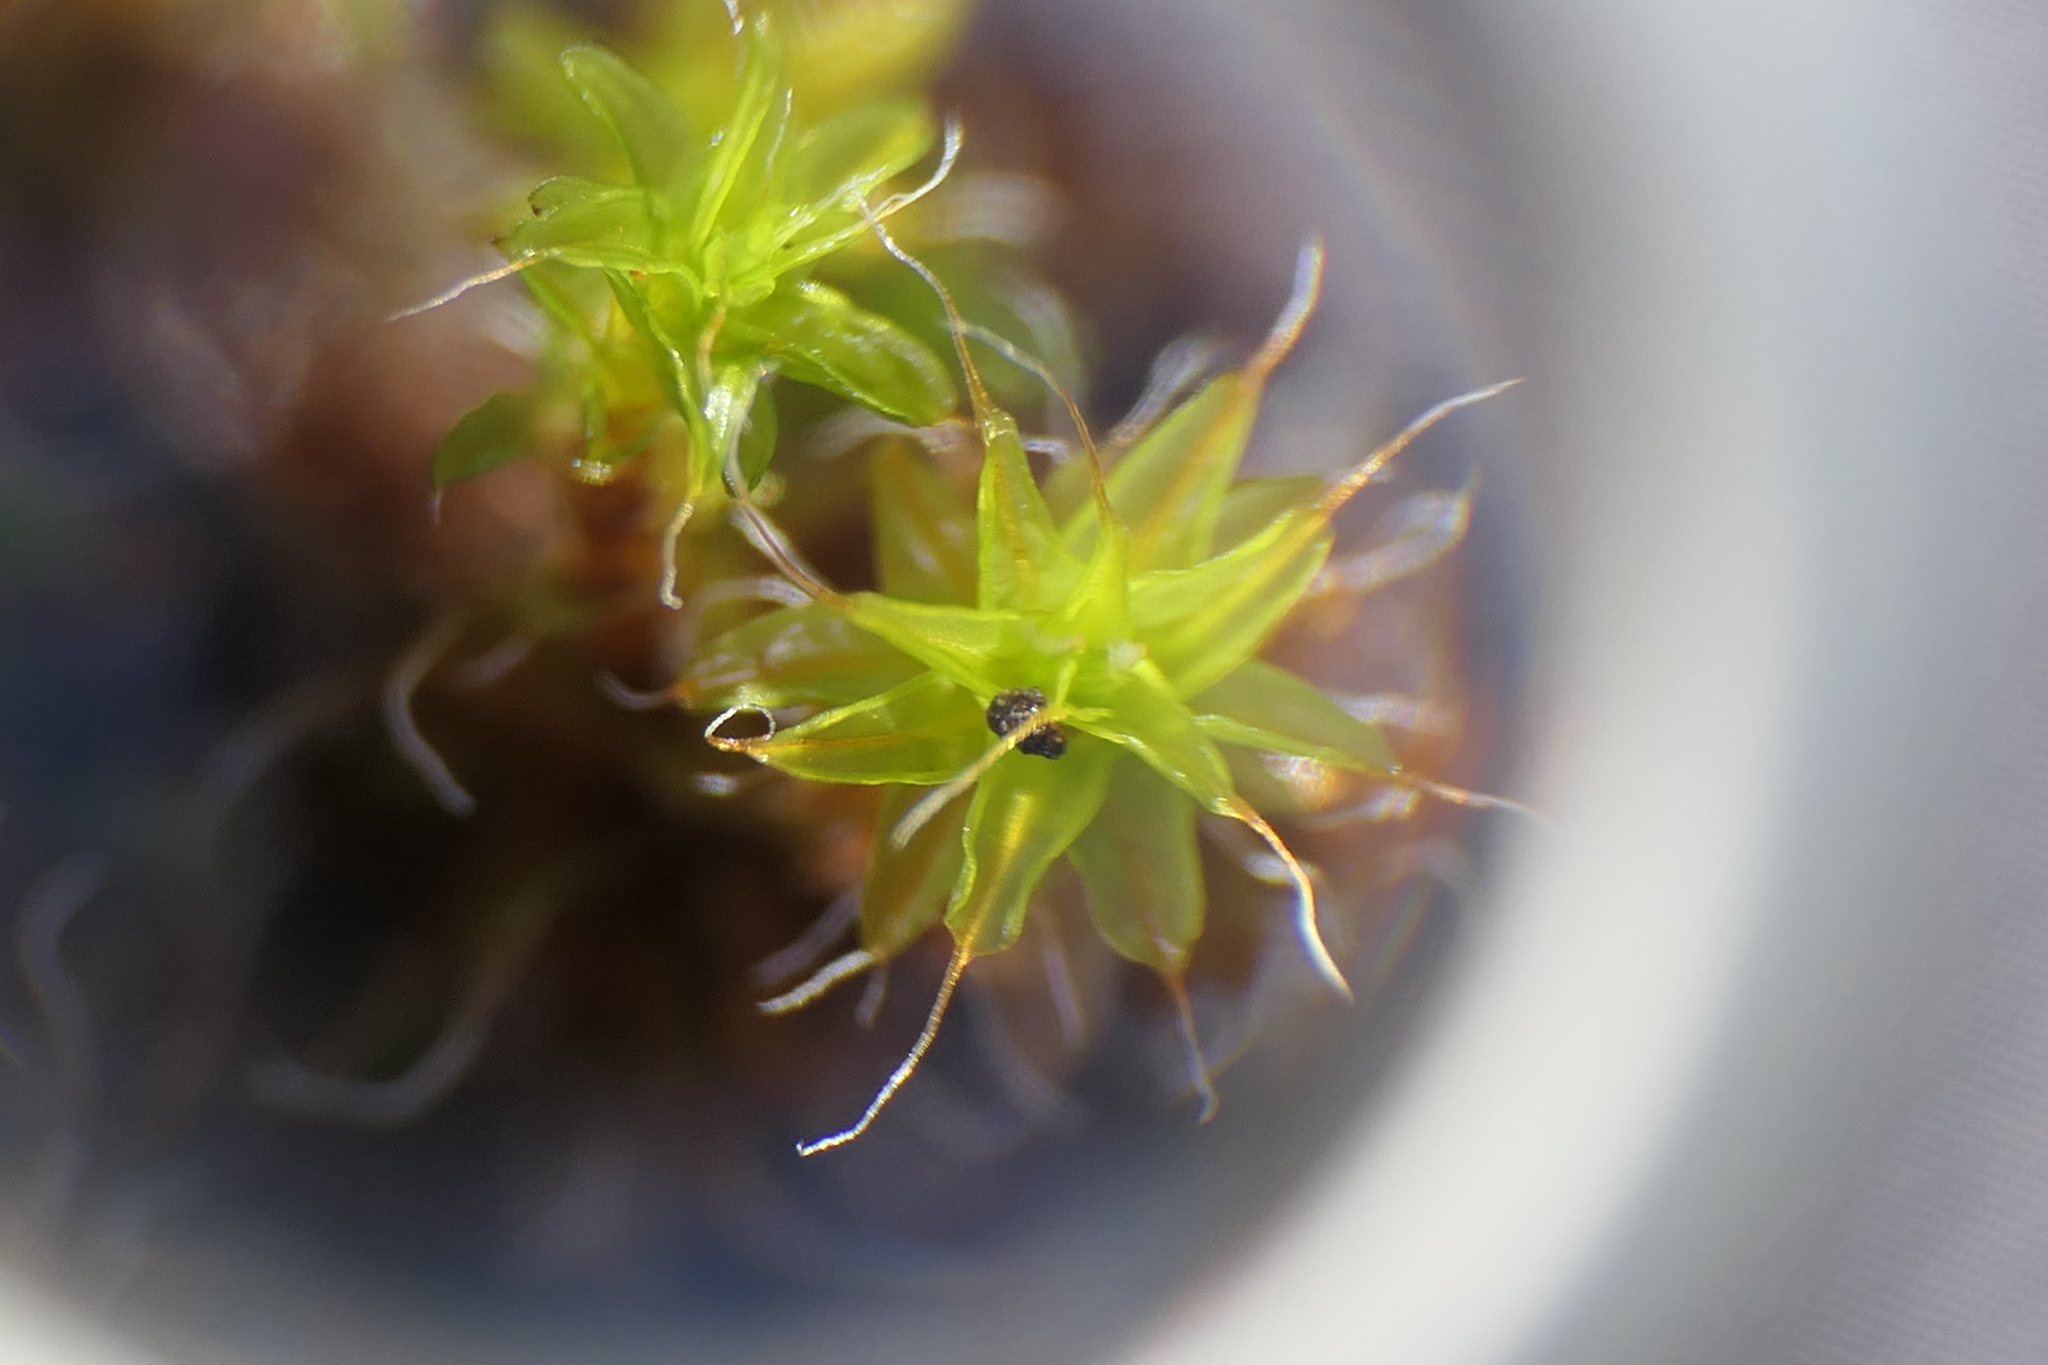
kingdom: Plantae
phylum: Bryophyta
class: Bryopsida
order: Pottiales
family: Pottiaceae
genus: Syntrichia
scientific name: Syntrichia ruralis
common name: Sidewalk screw moss
